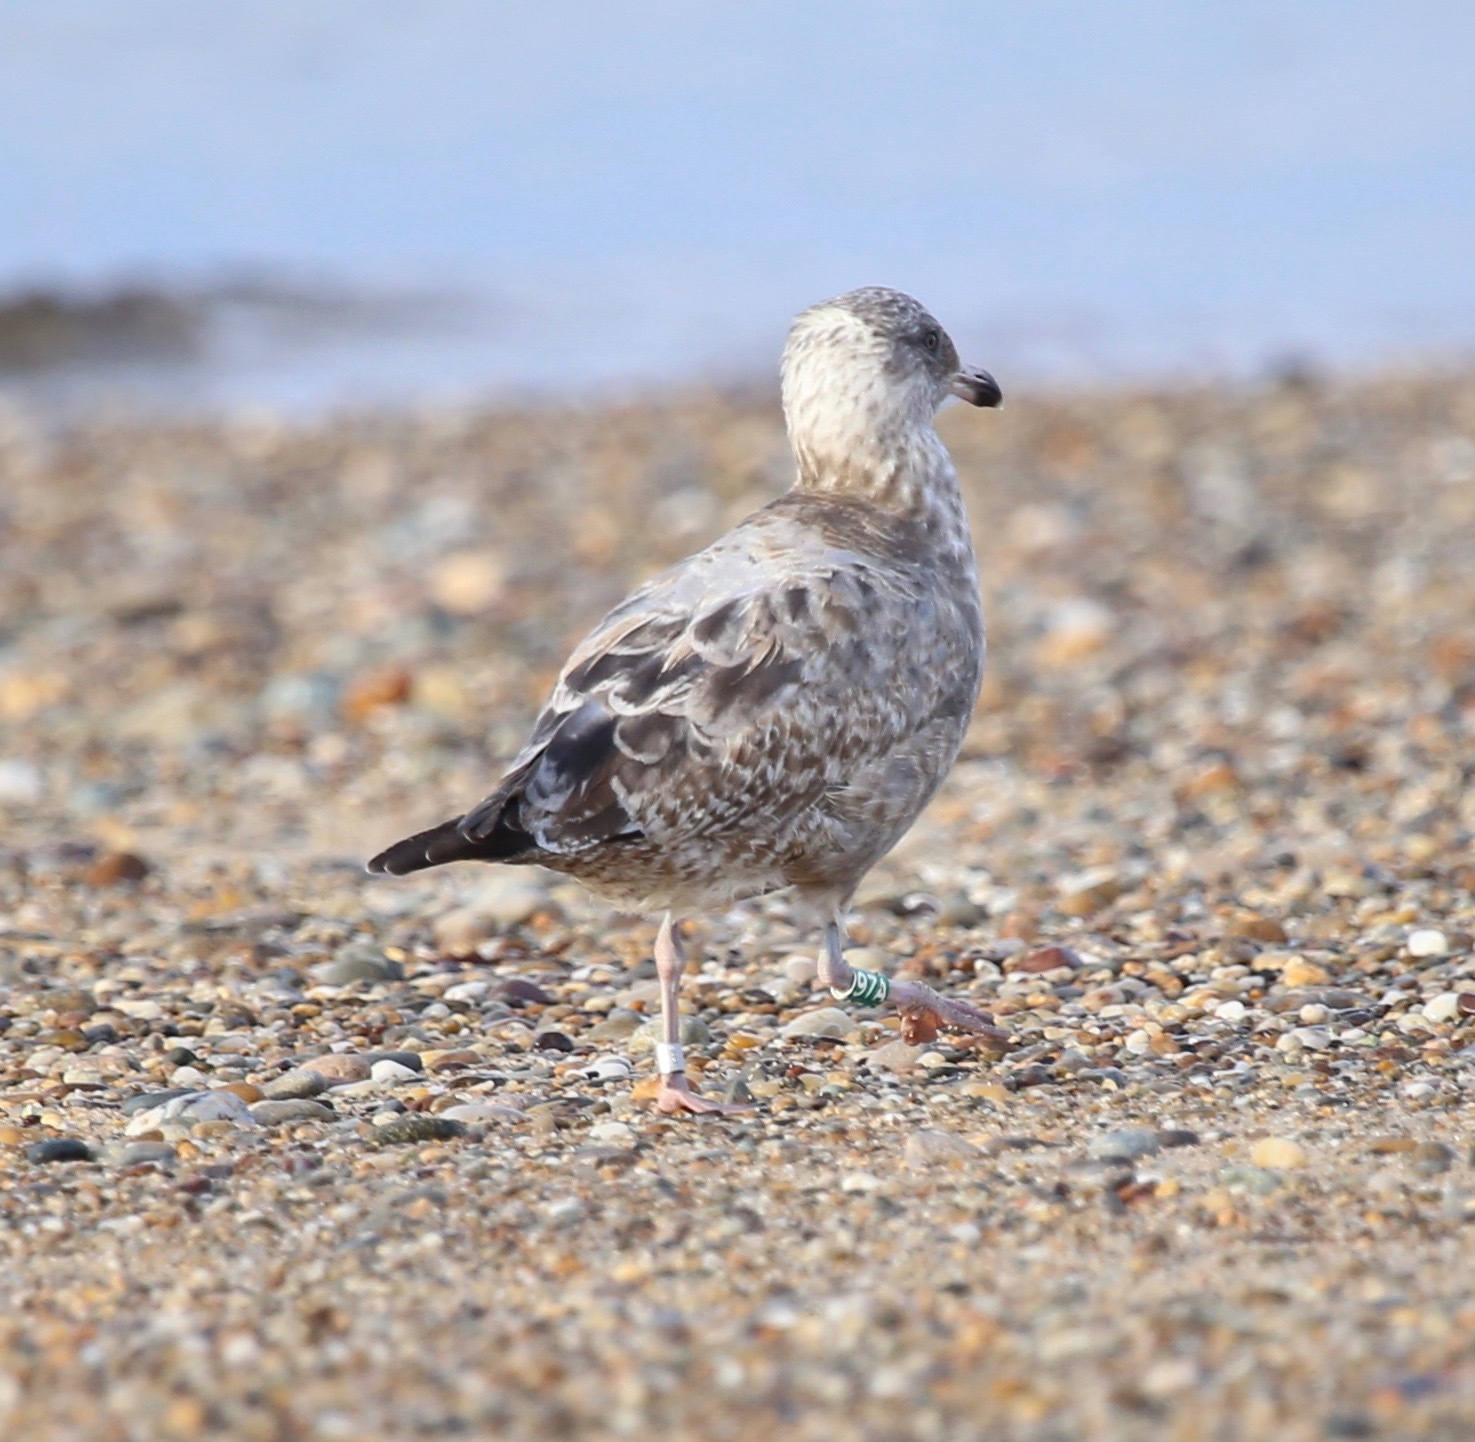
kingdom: Animalia
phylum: Chordata
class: Aves
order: Charadriiformes
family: Laridae
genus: Larus
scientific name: Larus argentatus
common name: Herring gull
